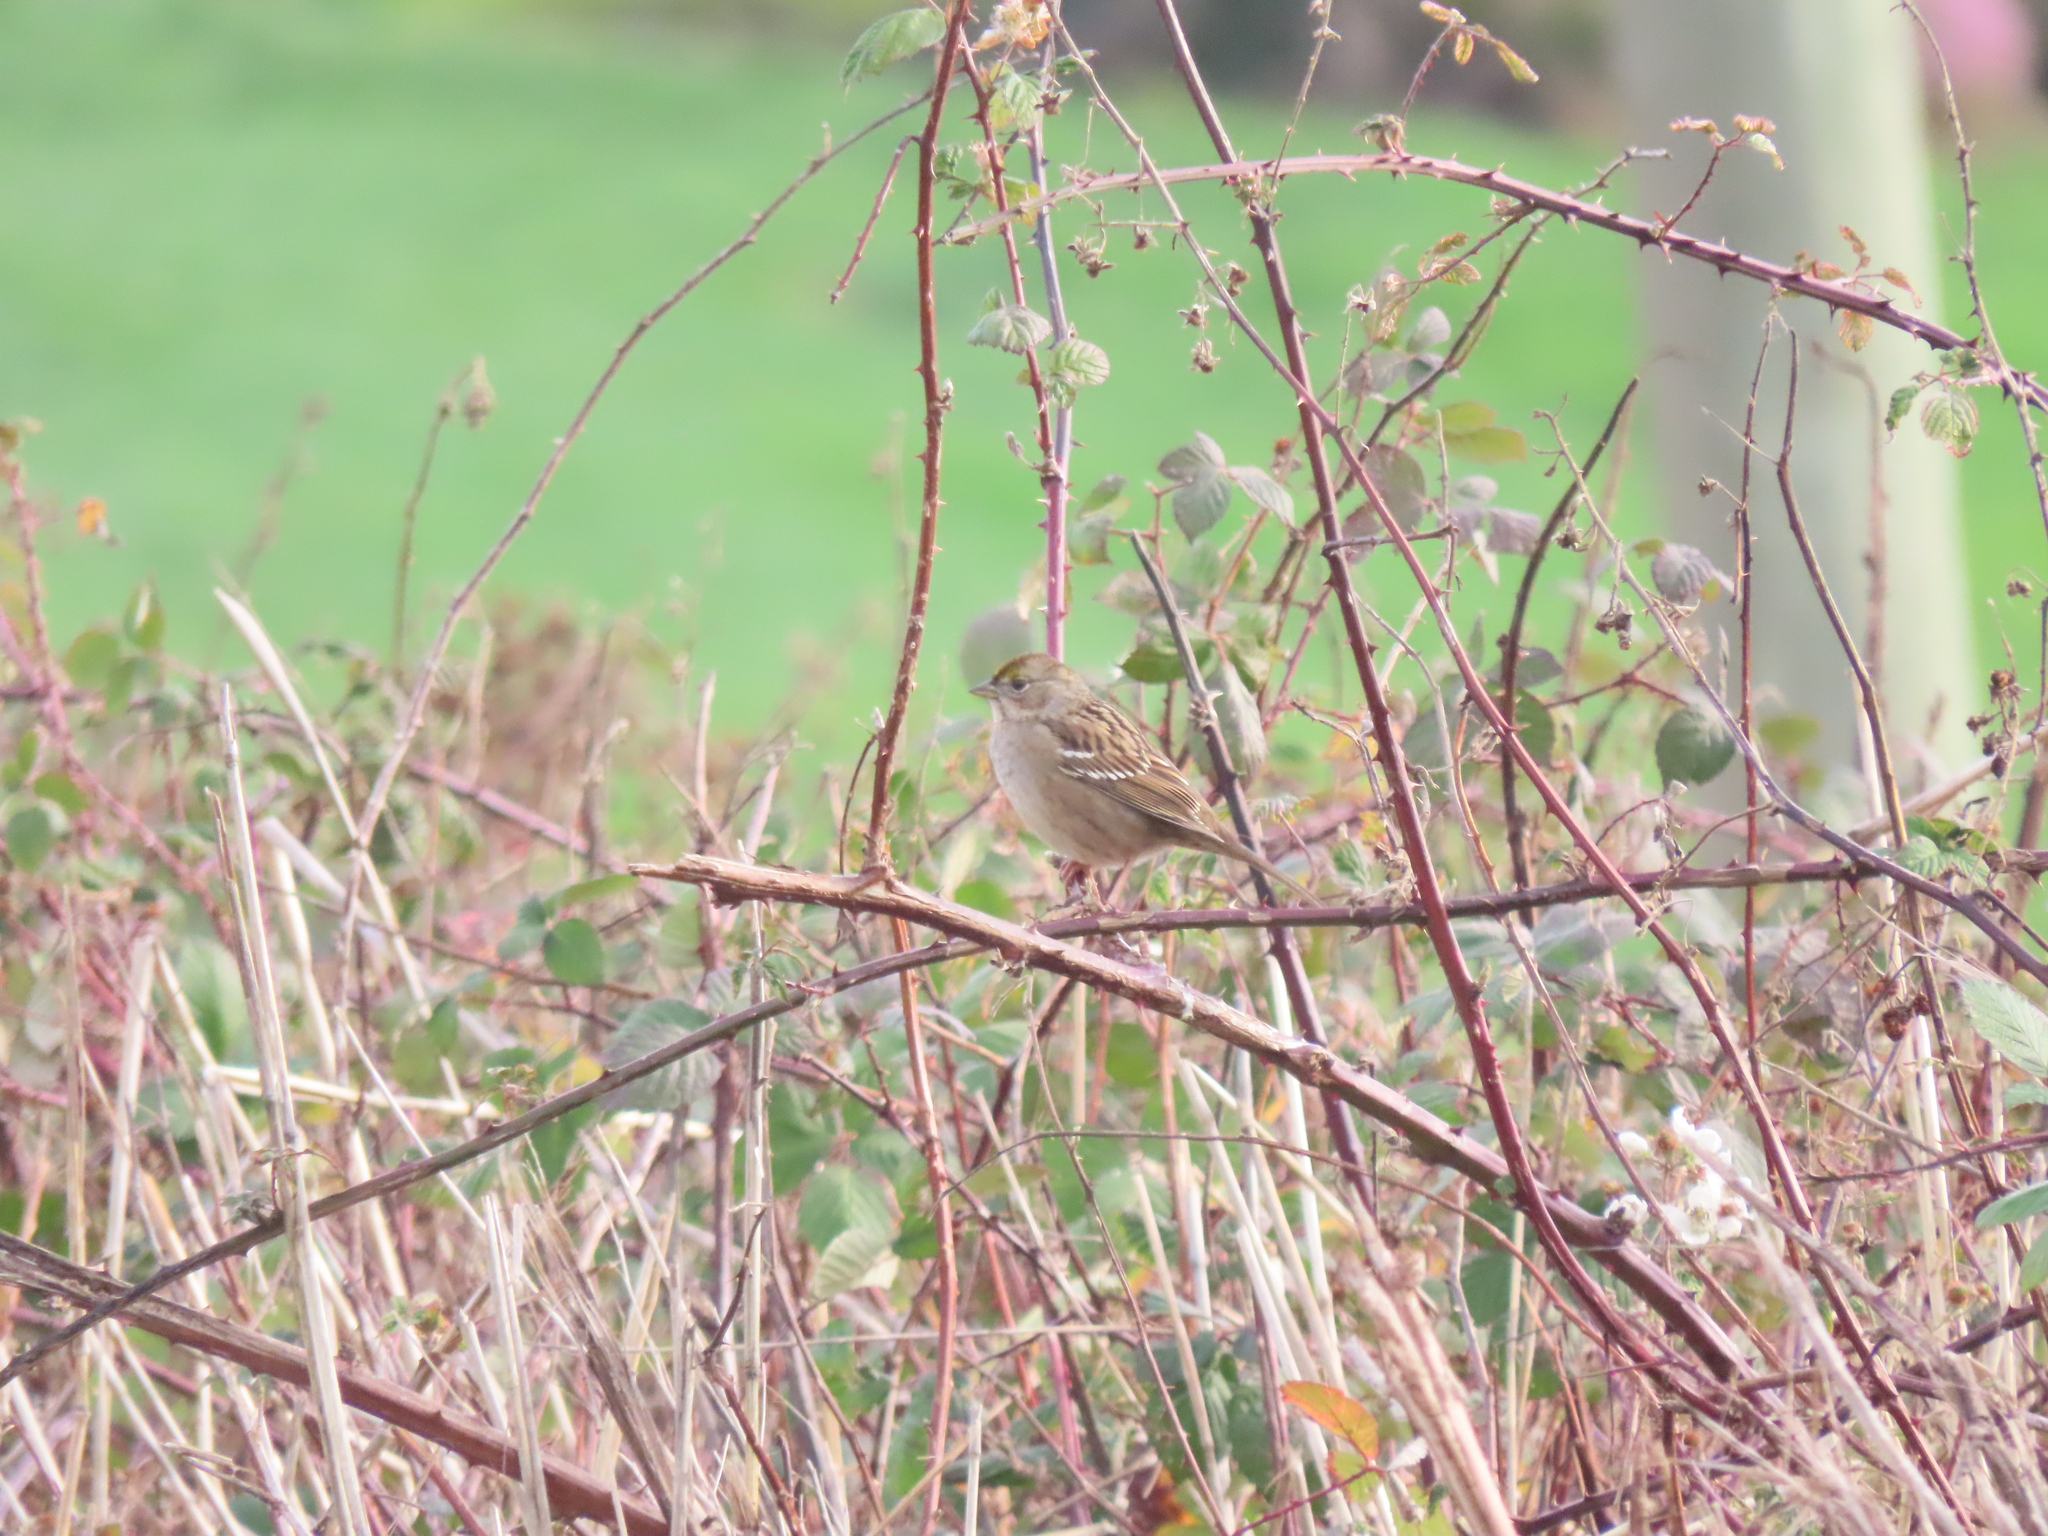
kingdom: Animalia
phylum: Chordata
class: Aves
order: Passeriformes
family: Passerellidae
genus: Zonotrichia
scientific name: Zonotrichia atricapilla
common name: Golden-crowned sparrow
